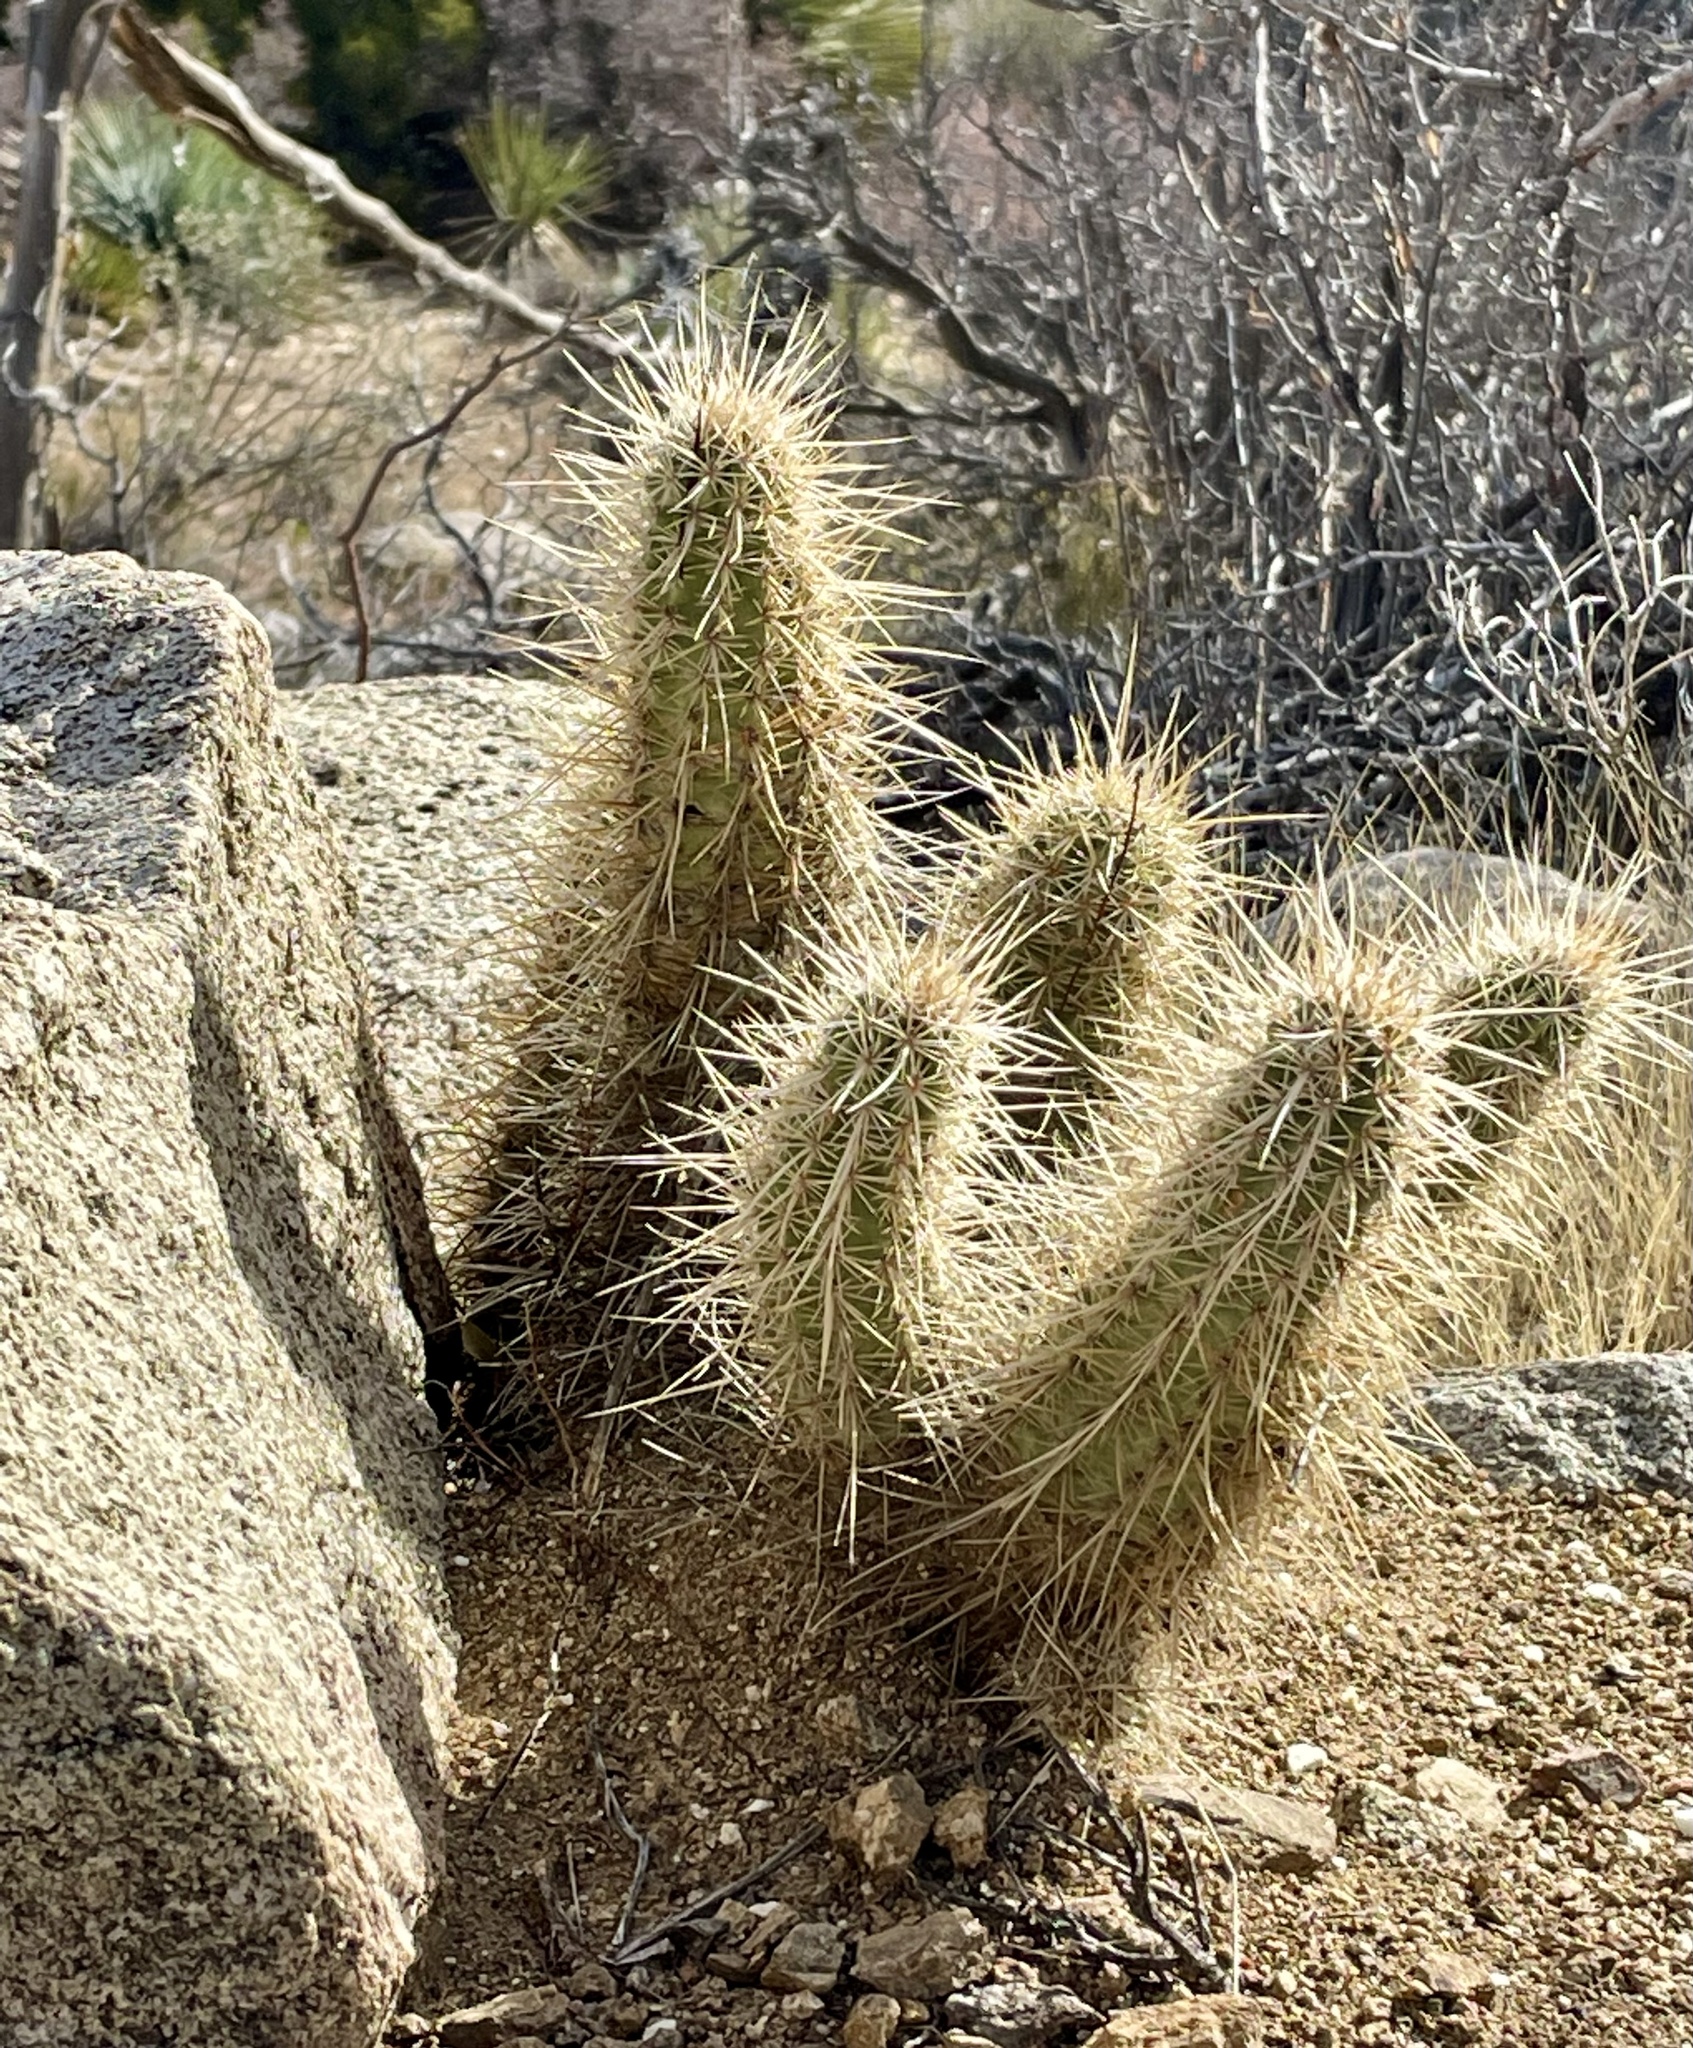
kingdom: Plantae
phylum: Tracheophyta
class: Magnoliopsida
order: Caryophyllales
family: Cactaceae
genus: Echinocereus
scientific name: Echinocereus engelmannii
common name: Engelmann's hedgehog cactus
